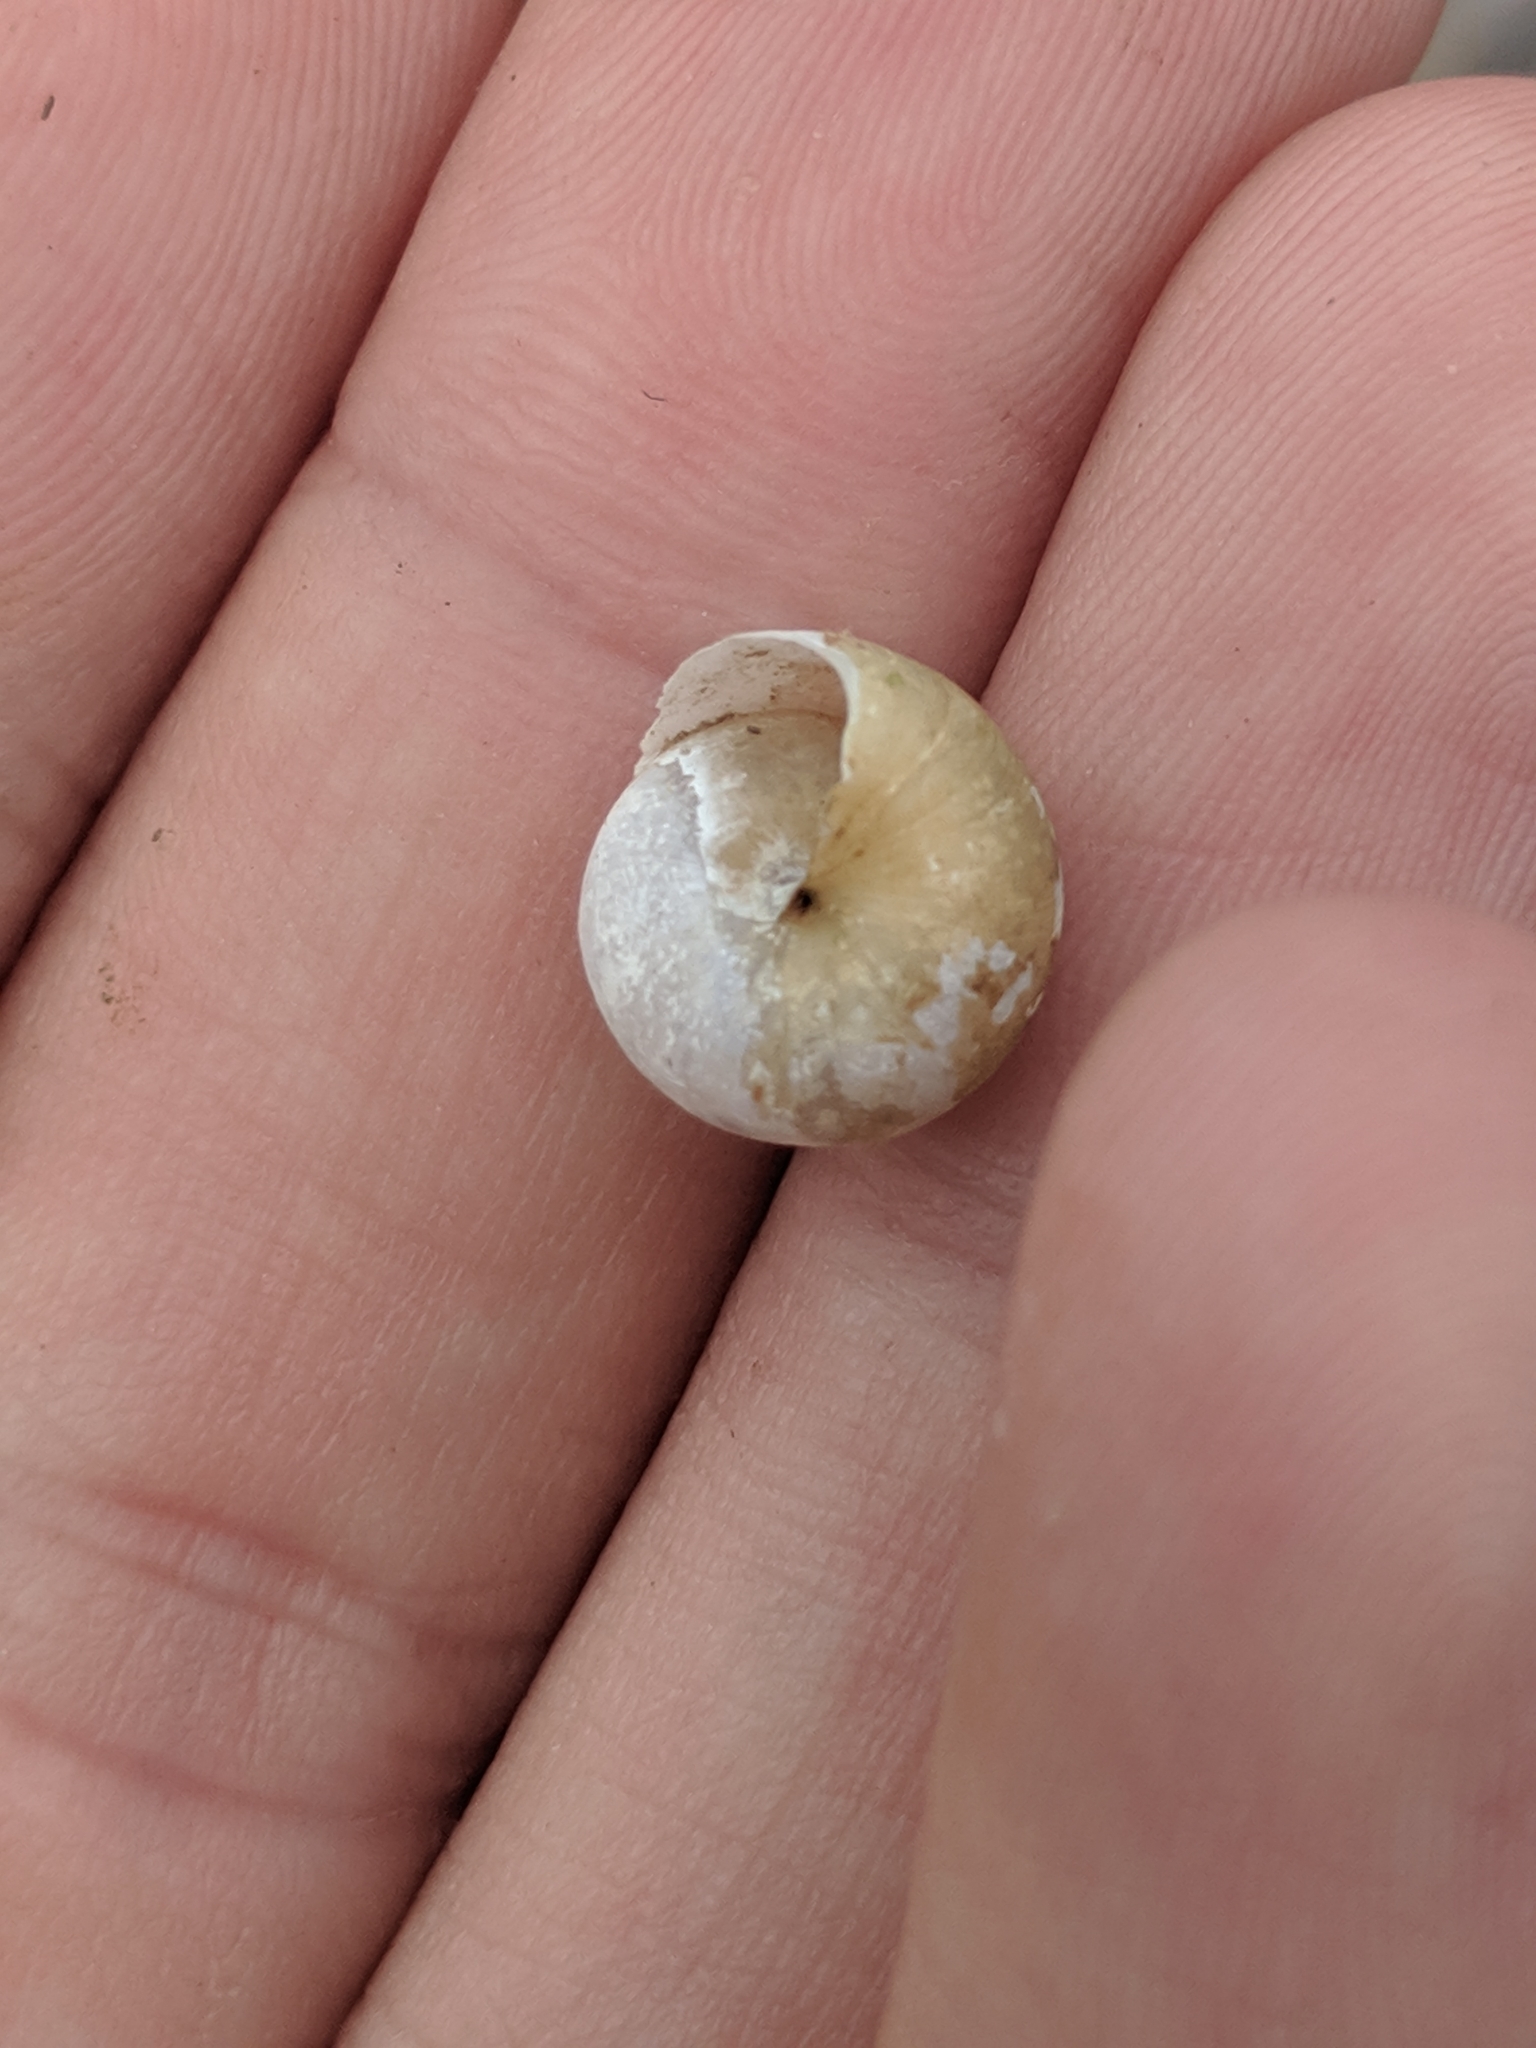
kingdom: Animalia
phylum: Mollusca
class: Gastropoda
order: Stylommatophora
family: Gastrodontidae
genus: Ventridens
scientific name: Ventridens ligera
